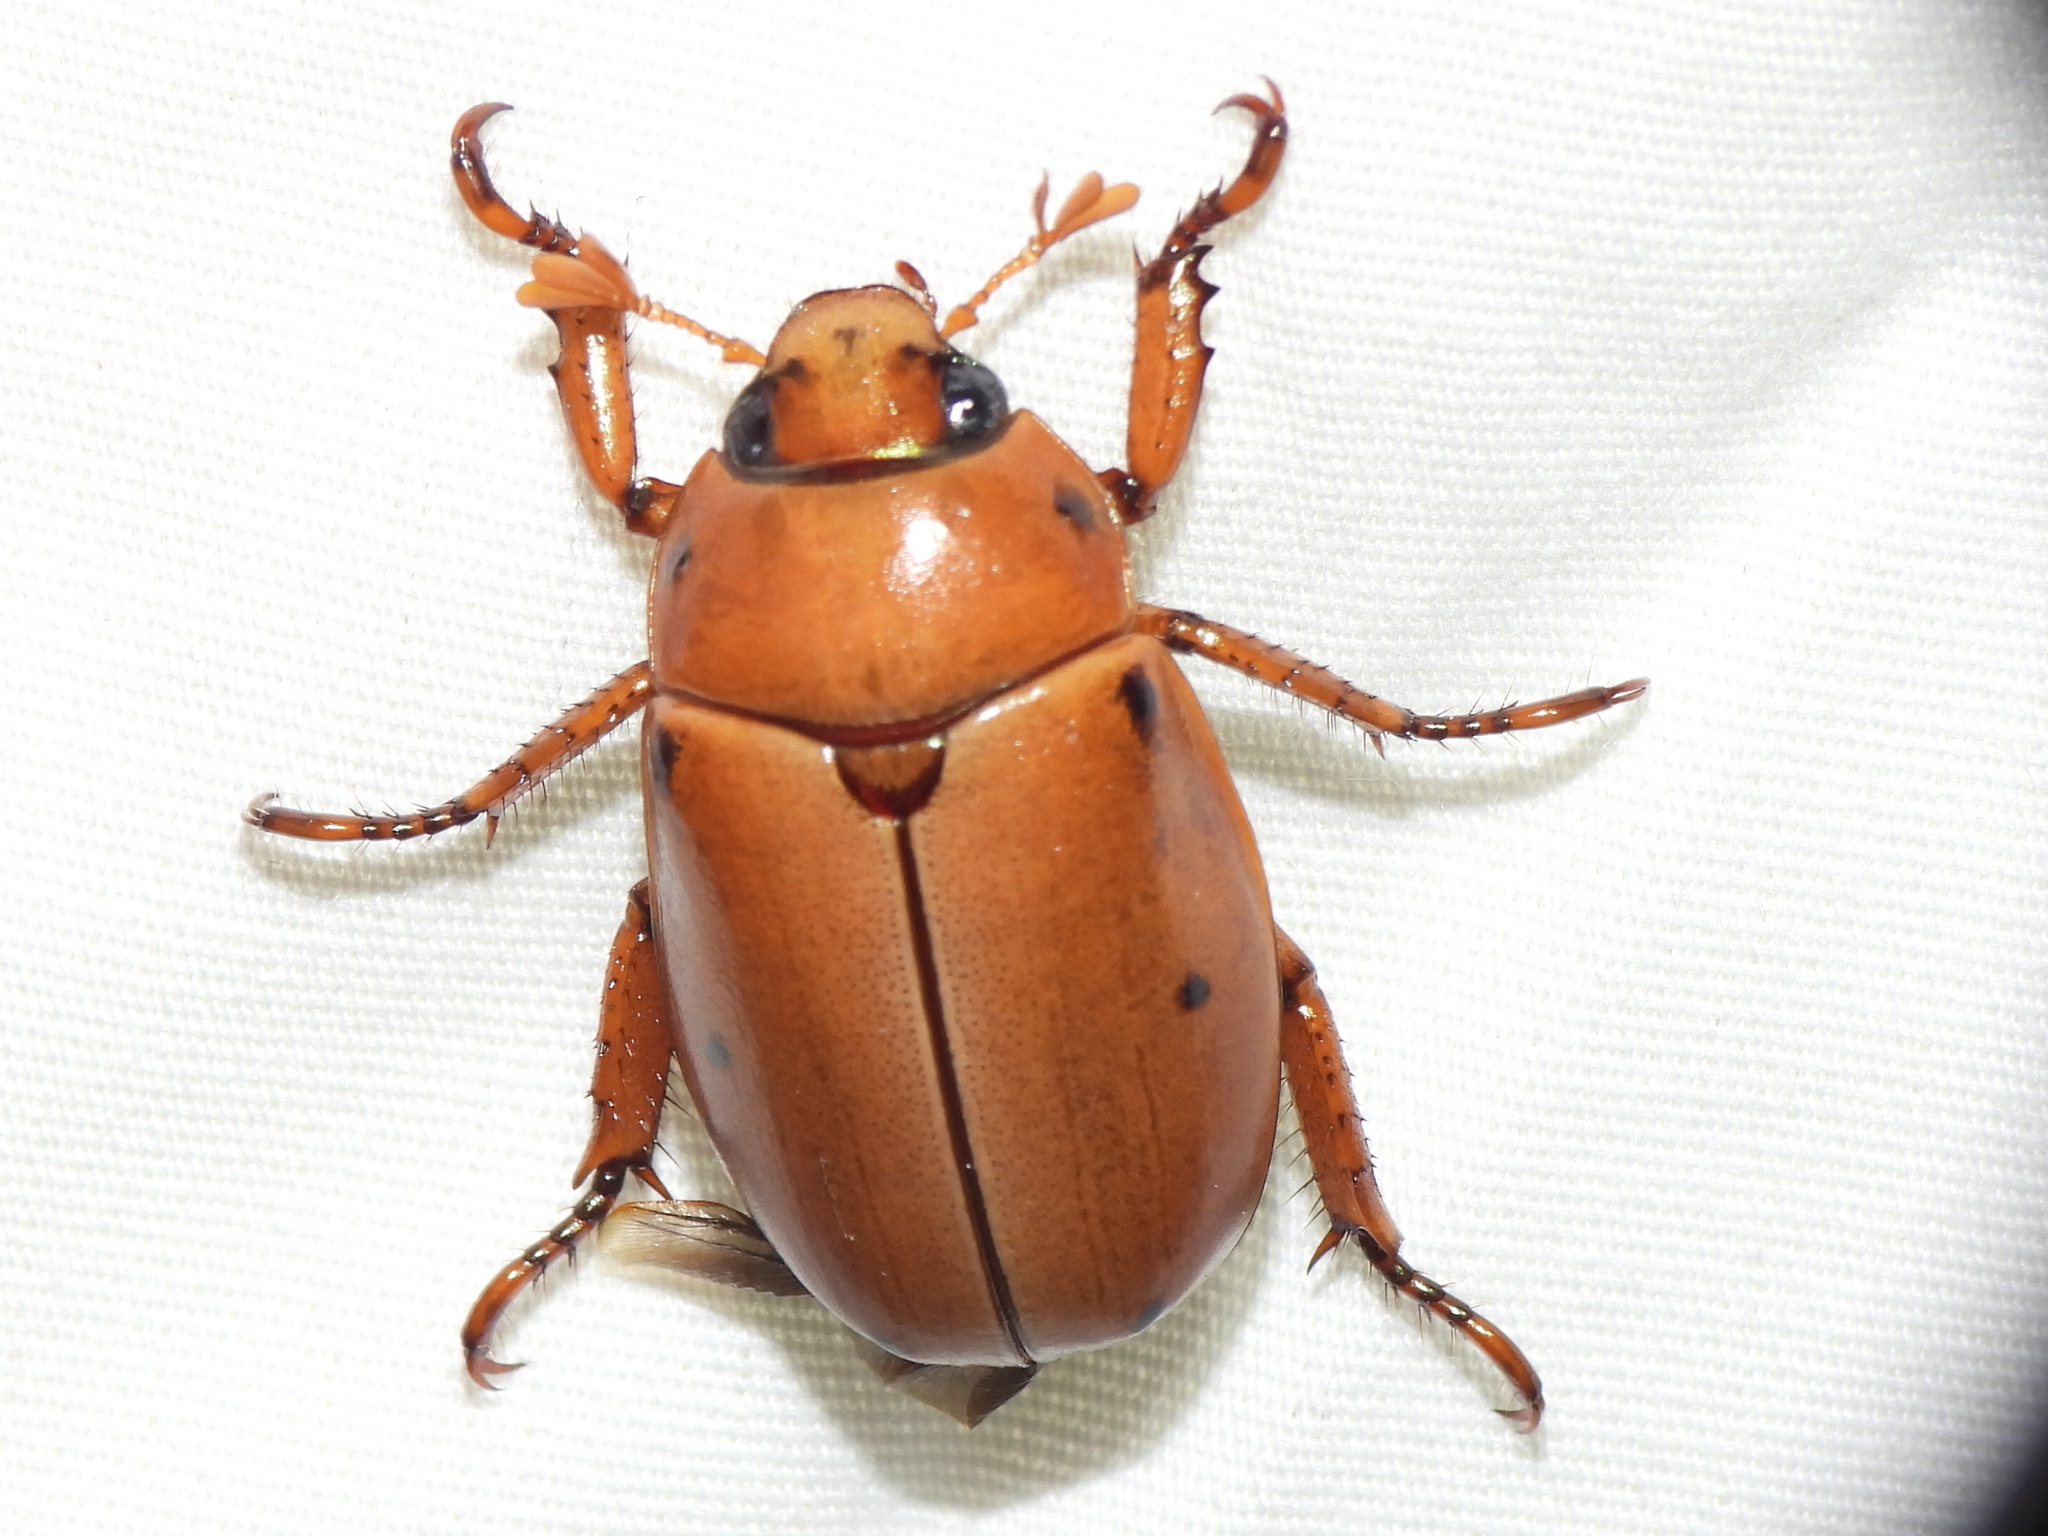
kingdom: Animalia
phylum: Arthropoda
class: Insecta
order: Coleoptera
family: Scarabaeidae
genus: Pelidnota
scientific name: Pelidnota punctata
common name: Grapevine beetle
